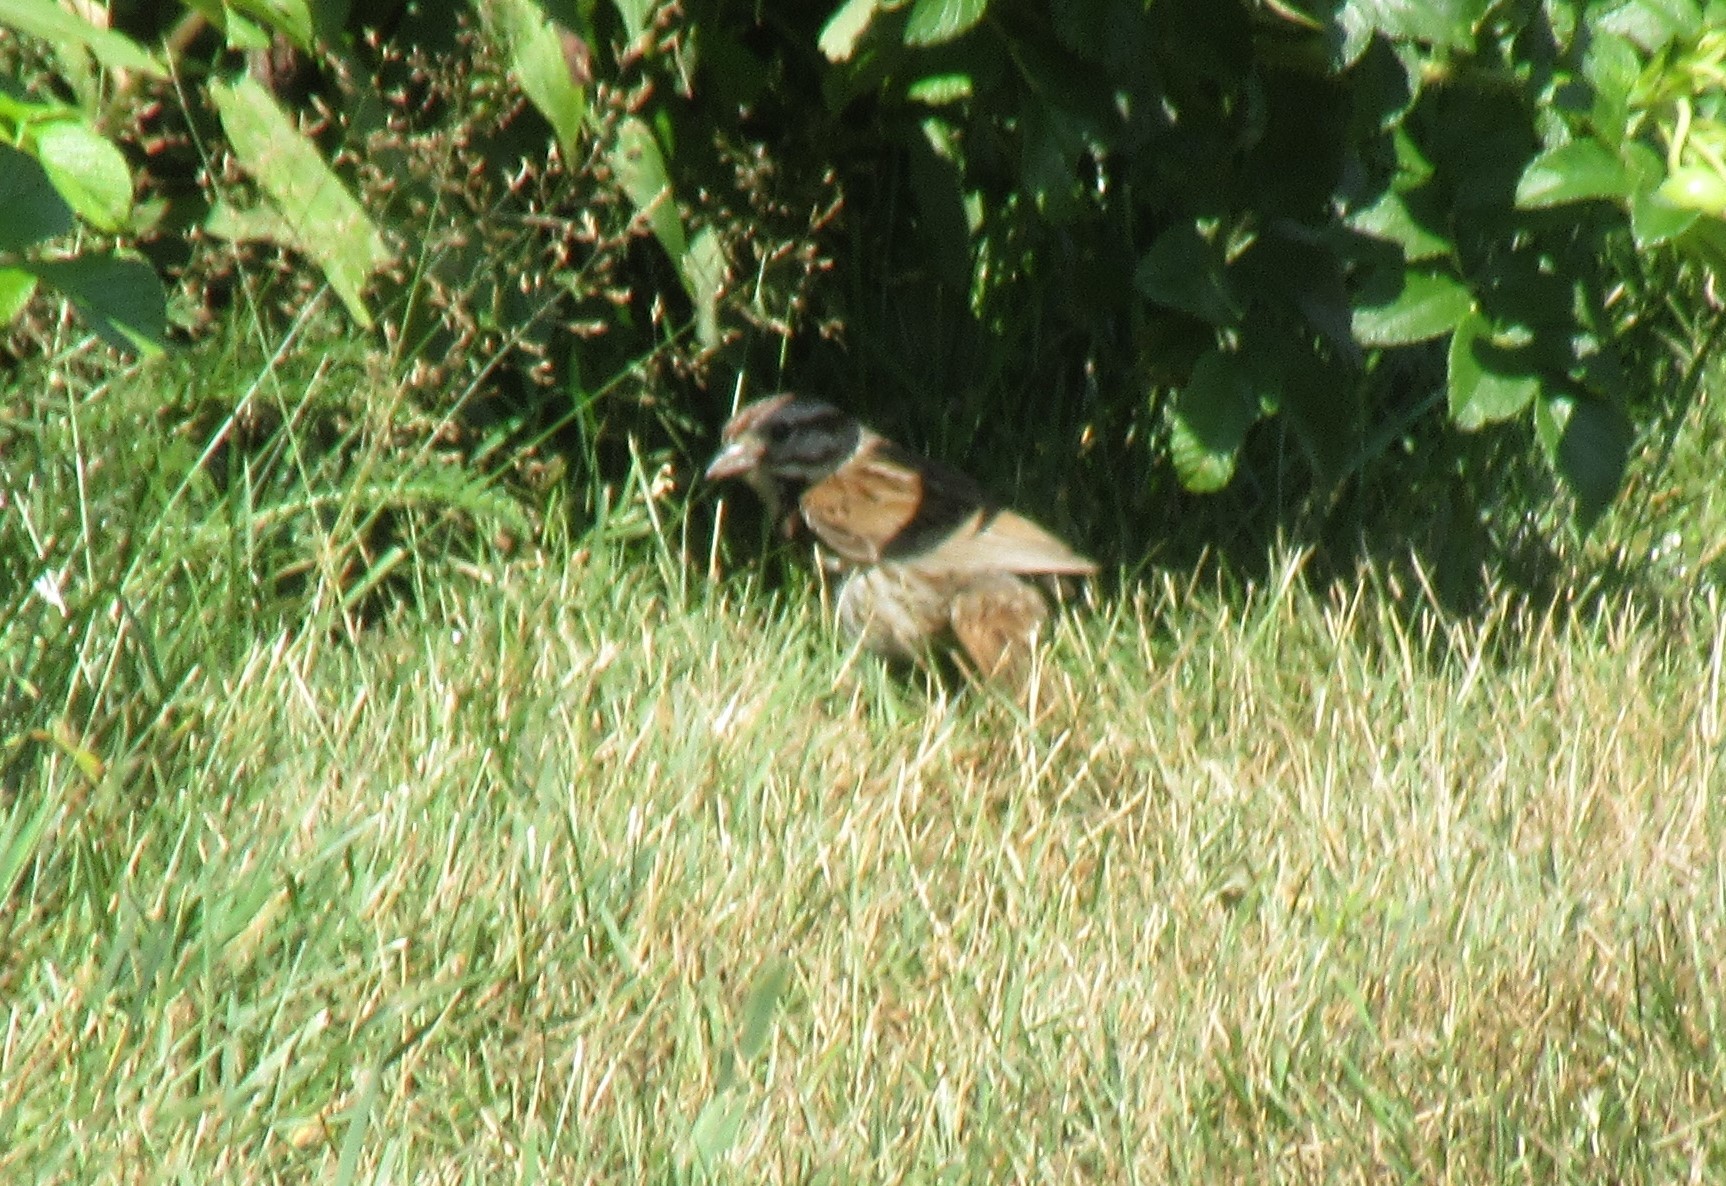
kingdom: Animalia
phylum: Chordata
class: Aves
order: Passeriformes
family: Passerellidae
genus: Melospiza
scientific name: Melospiza melodia
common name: Song sparrow
